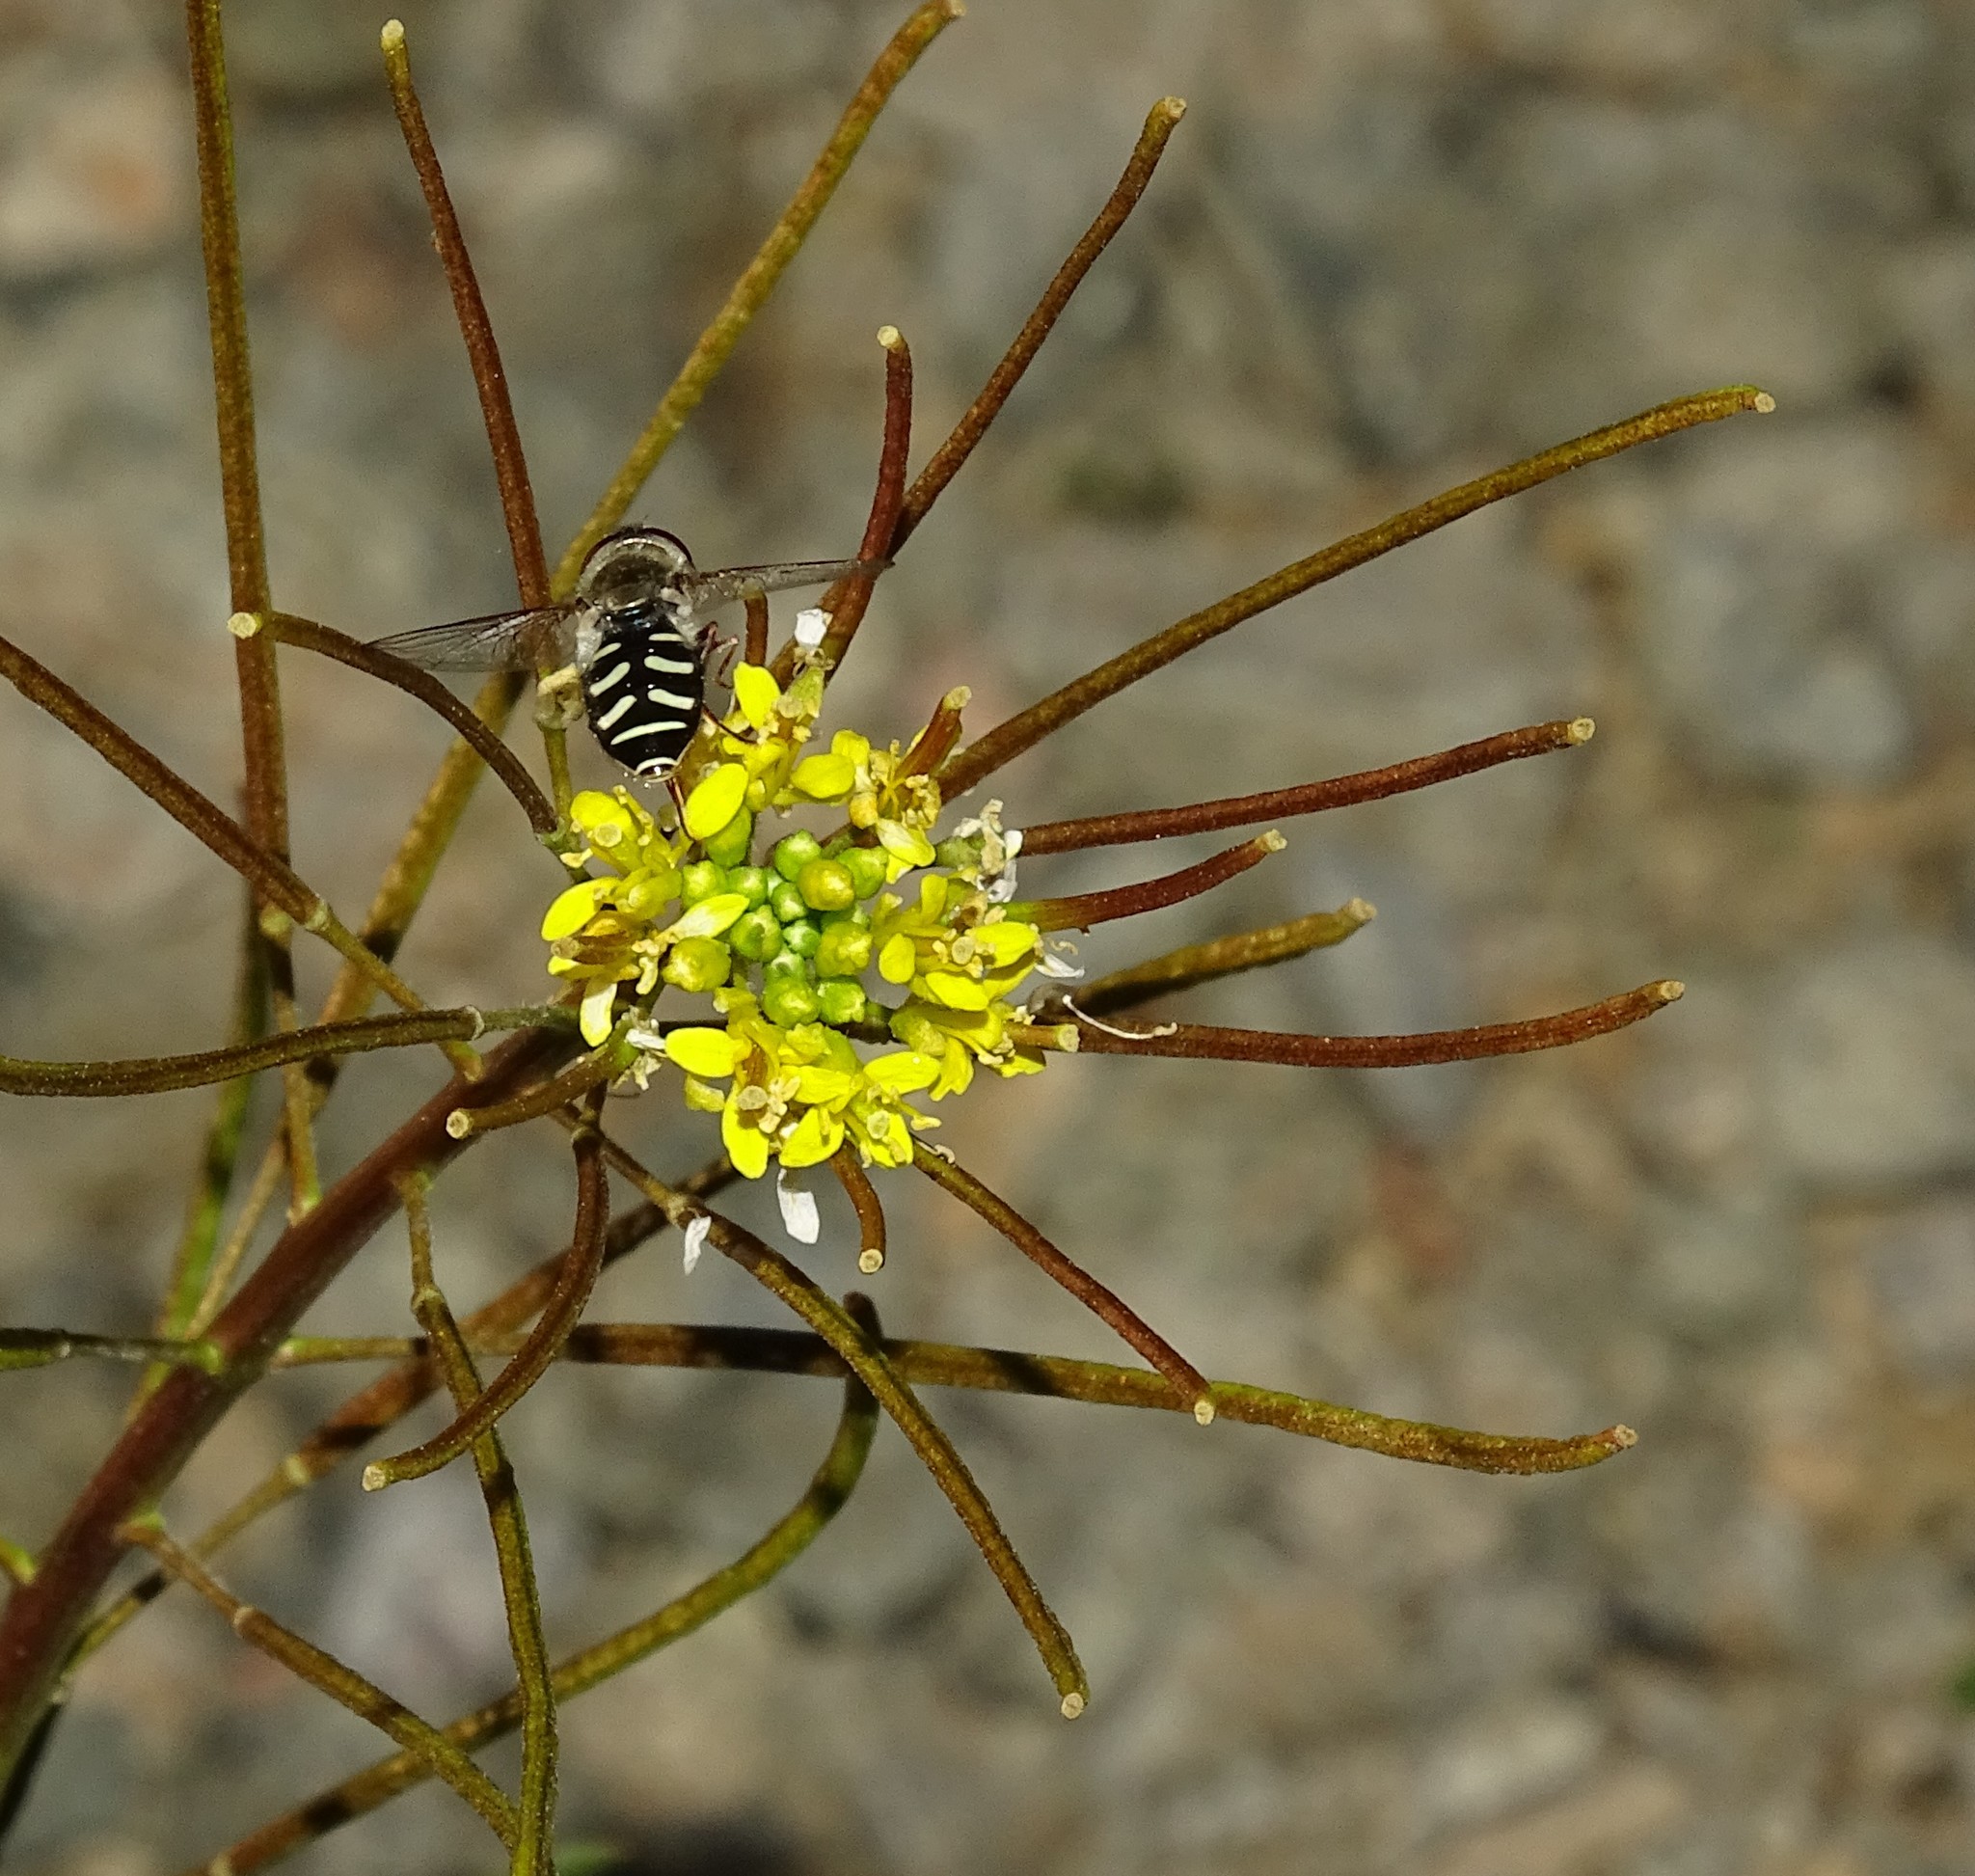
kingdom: Animalia
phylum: Arthropoda
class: Insecta
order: Diptera
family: Syrphidae
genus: Eupeodes
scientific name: Eupeodes volucris
